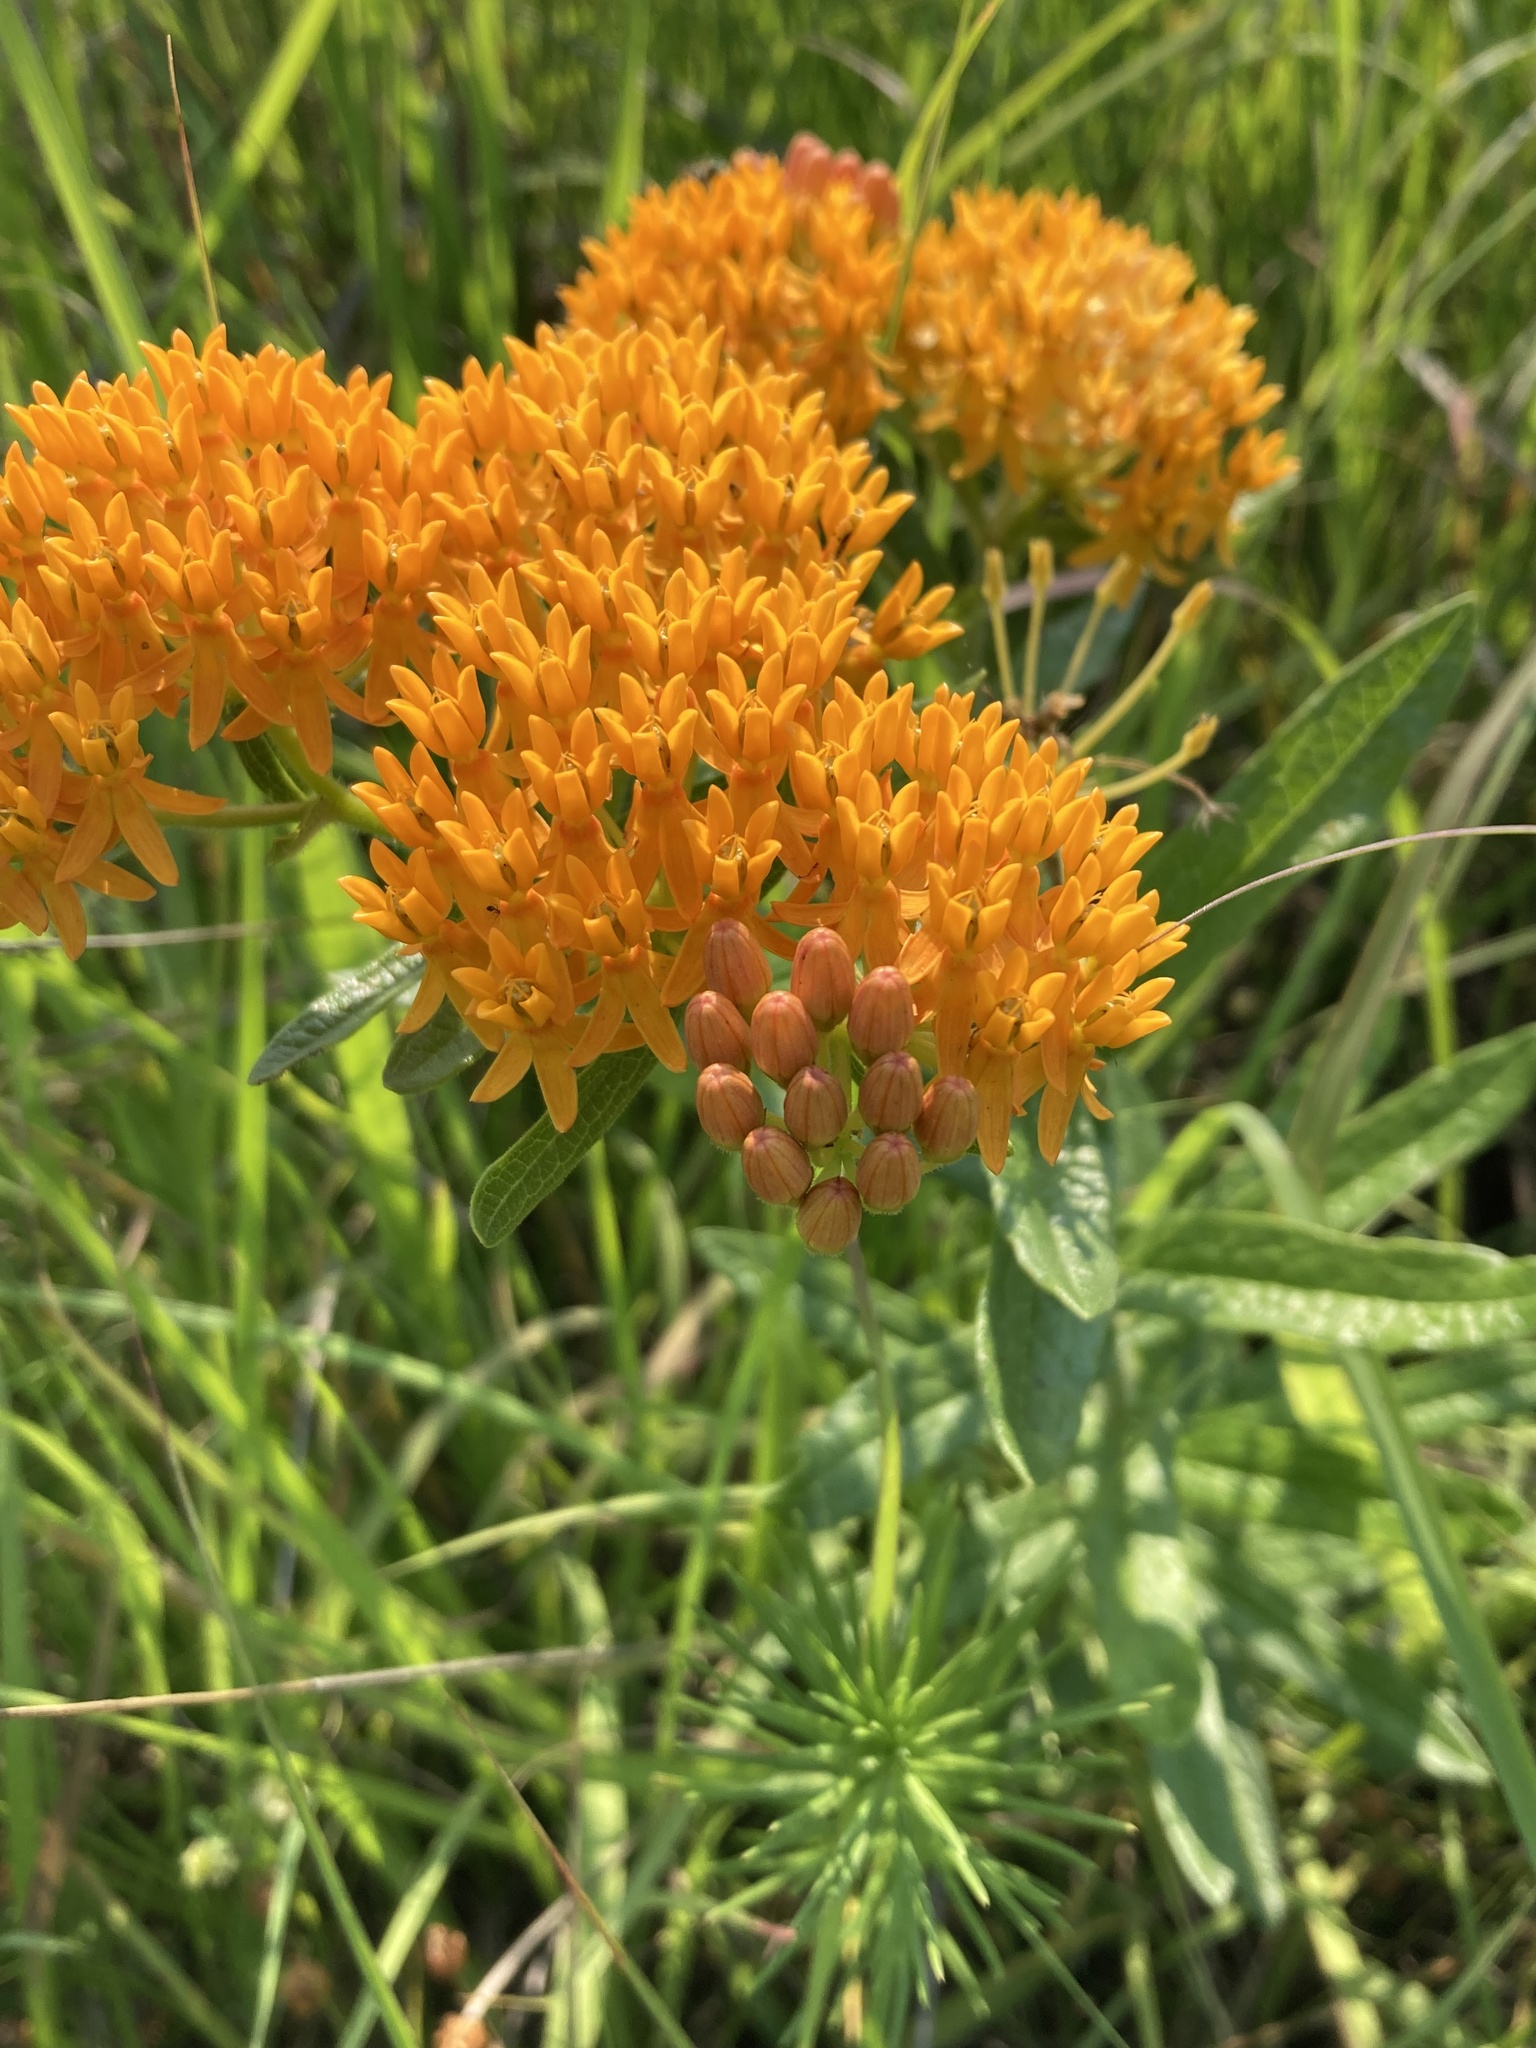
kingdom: Plantae
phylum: Tracheophyta
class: Magnoliopsida
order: Gentianales
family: Apocynaceae
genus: Asclepias
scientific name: Asclepias tuberosa
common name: Butterfly milkweed
